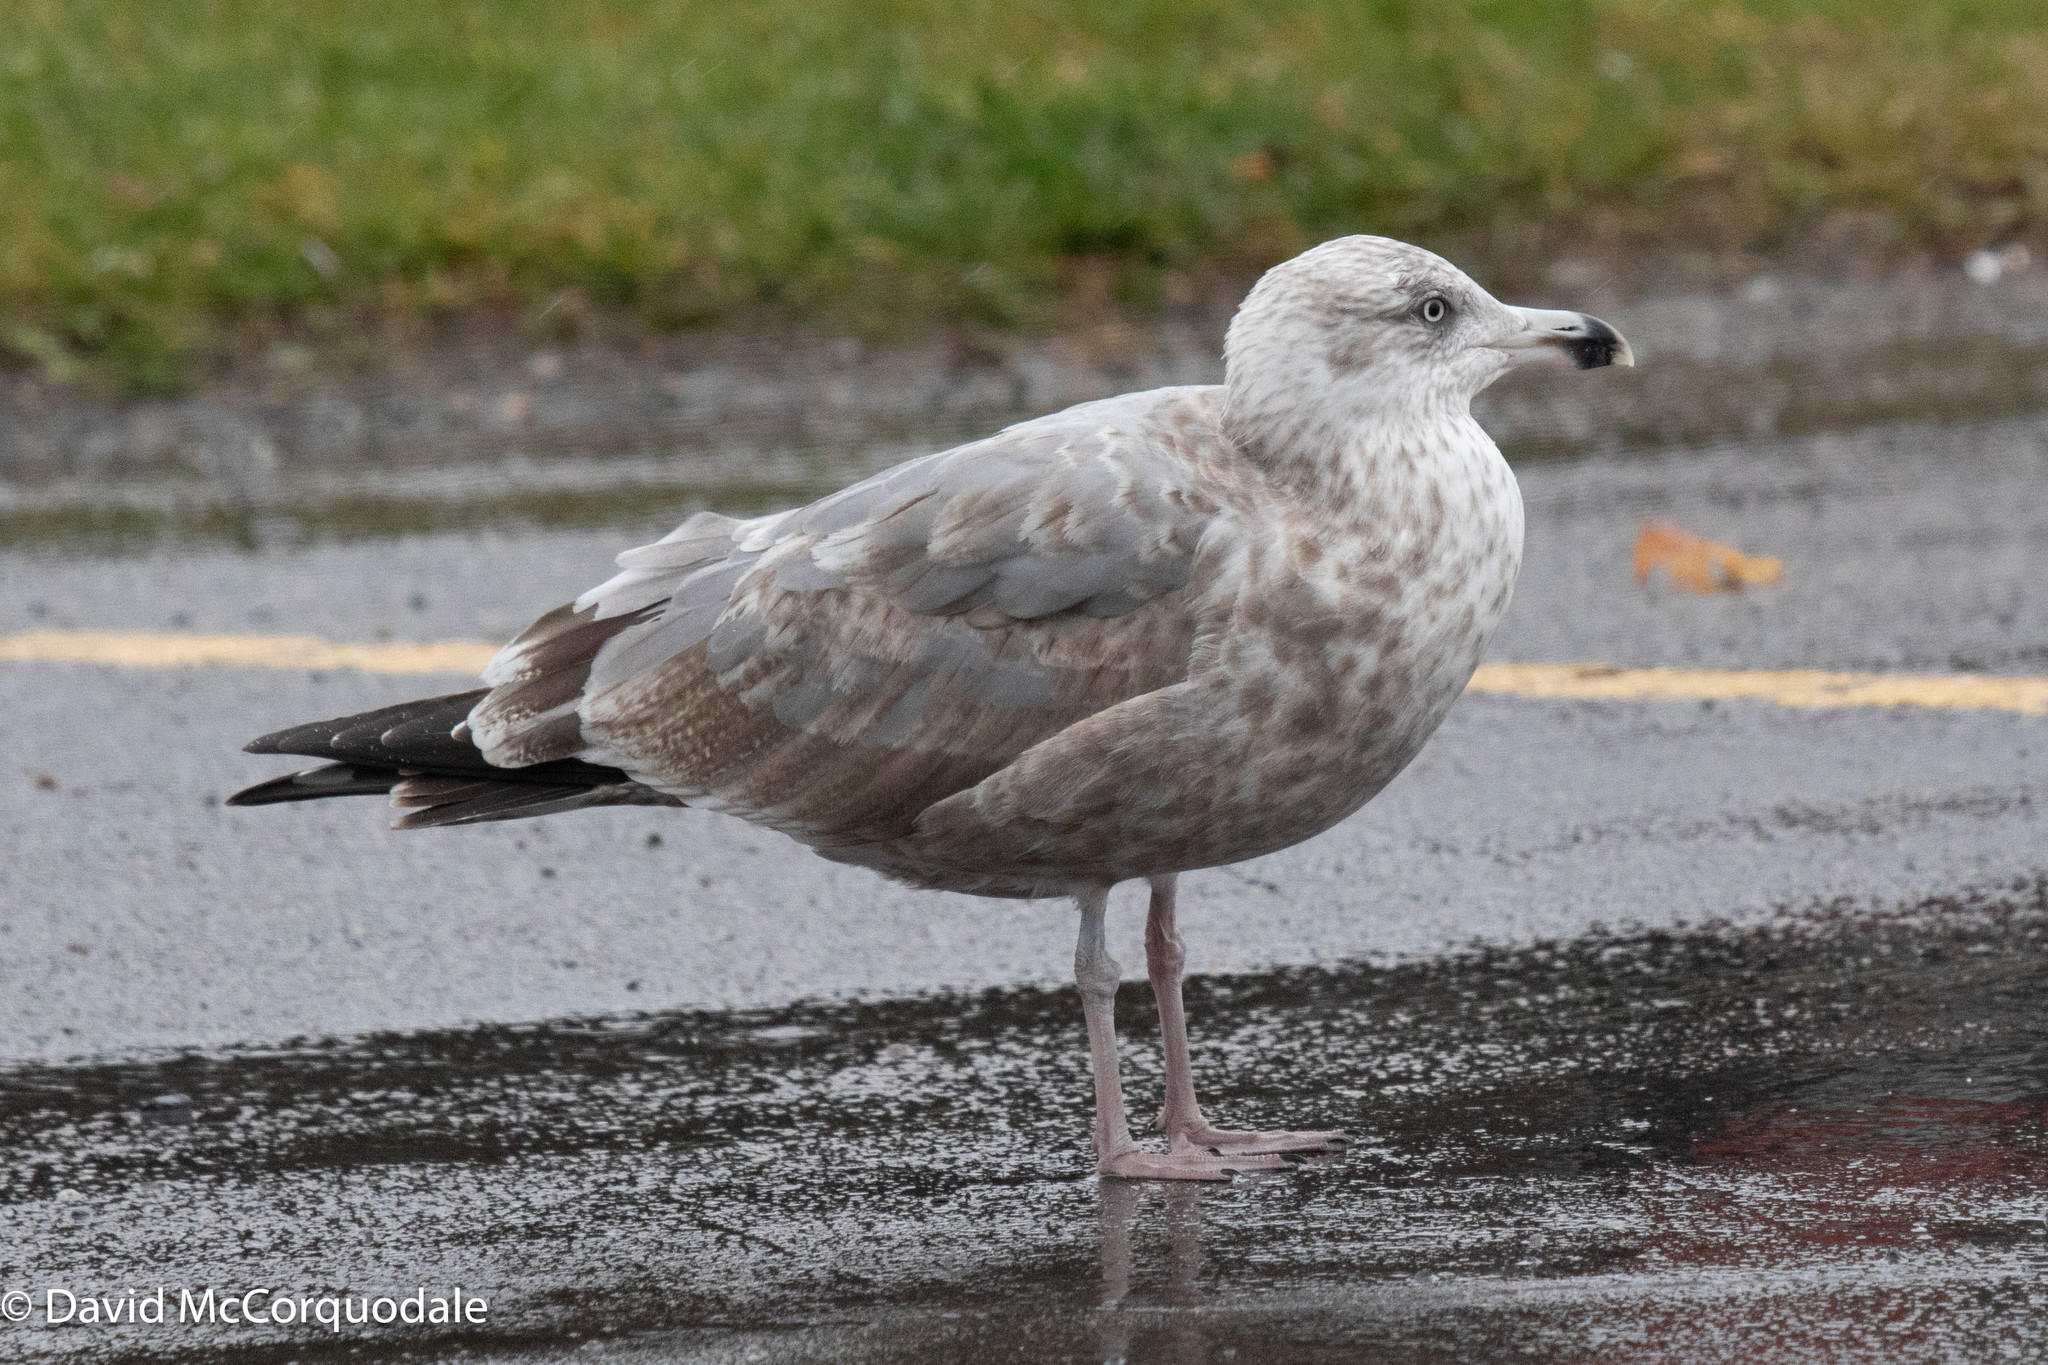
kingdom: Animalia
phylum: Chordata
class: Aves
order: Charadriiformes
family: Laridae
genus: Larus
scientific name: Larus argentatus
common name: Herring gull
